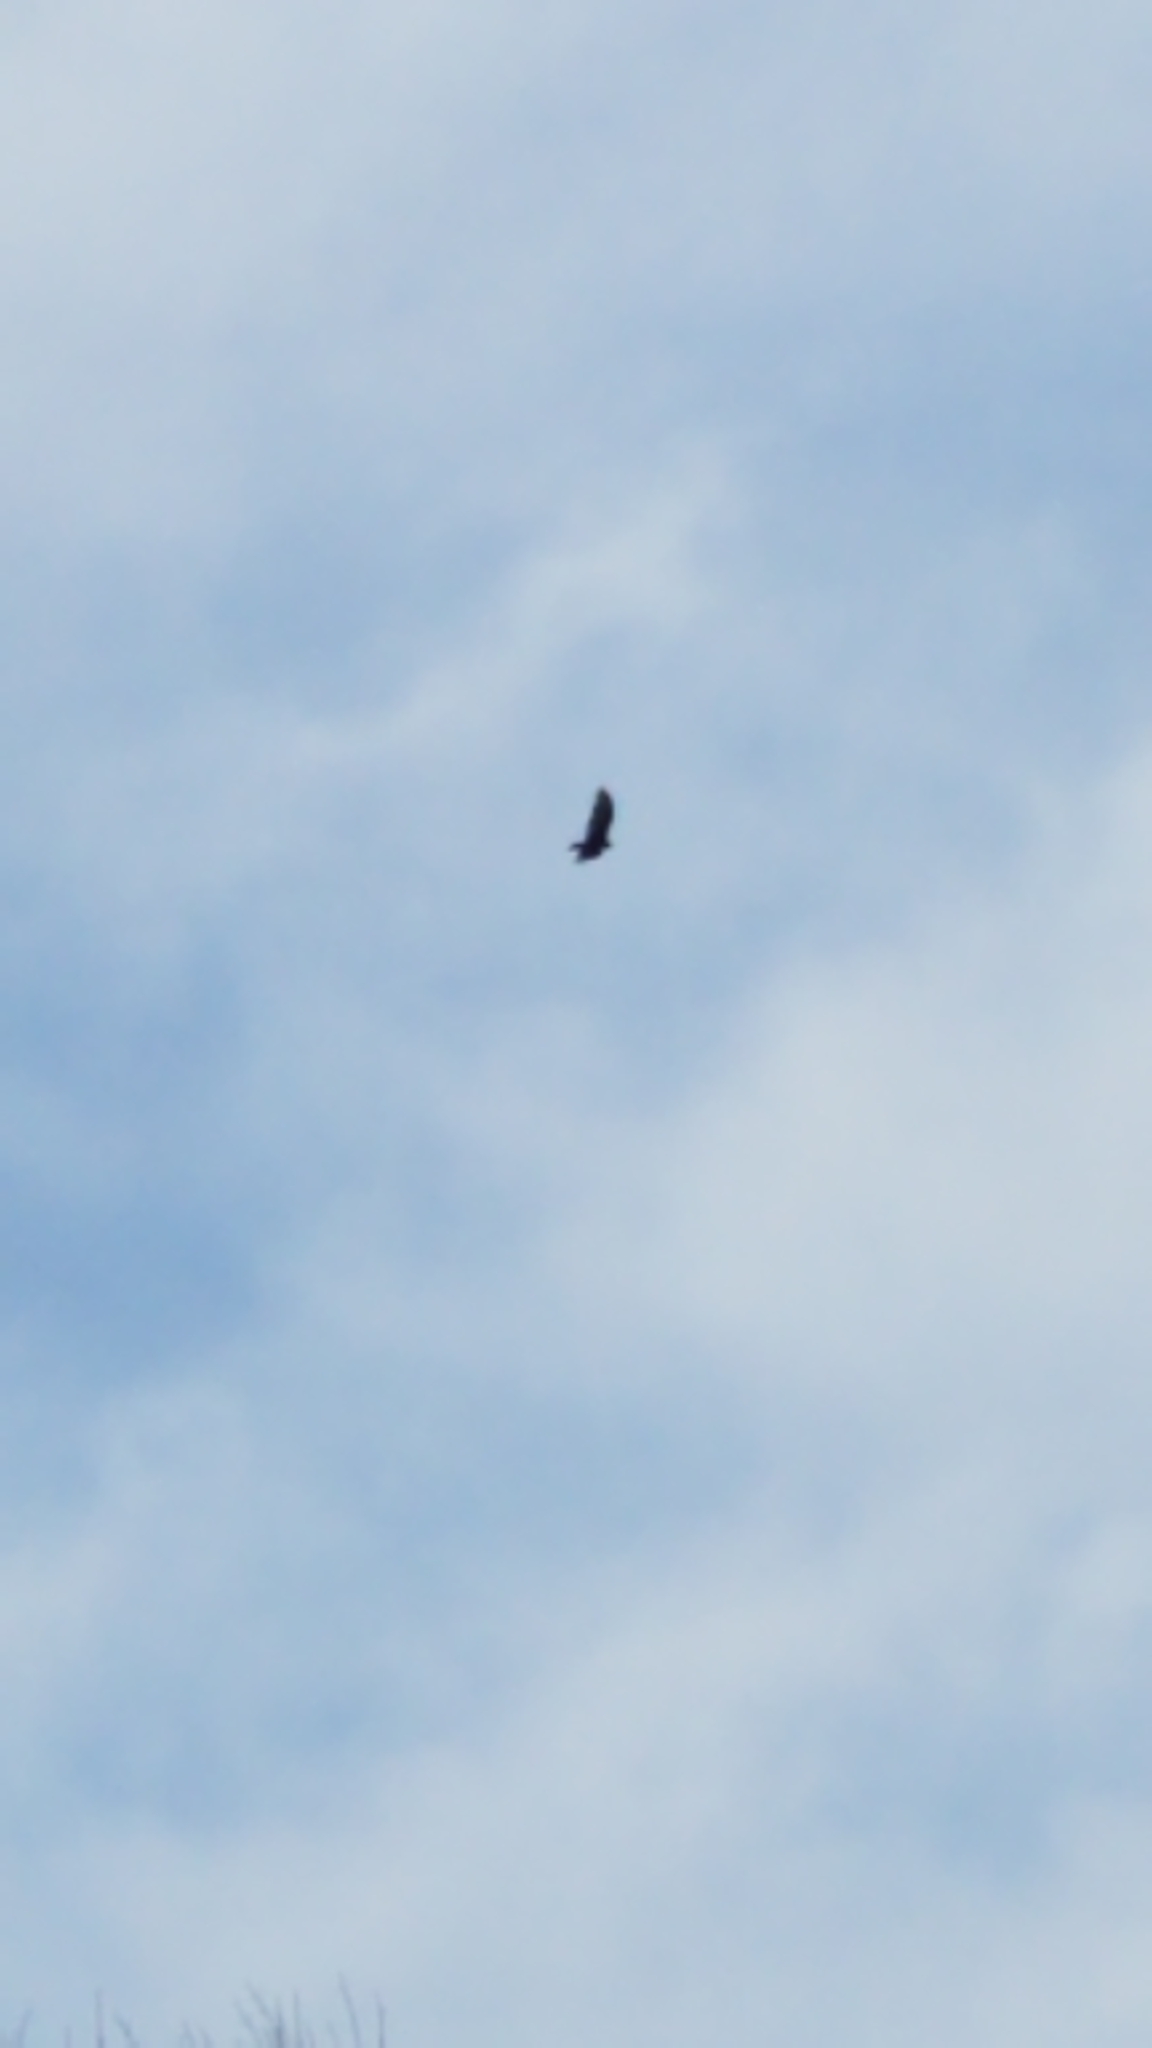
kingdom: Animalia
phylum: Chordata
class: Aves
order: Accipitriformes
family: Cathartidae
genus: Cathartes
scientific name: Cathartes aura
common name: Turkey vulture
